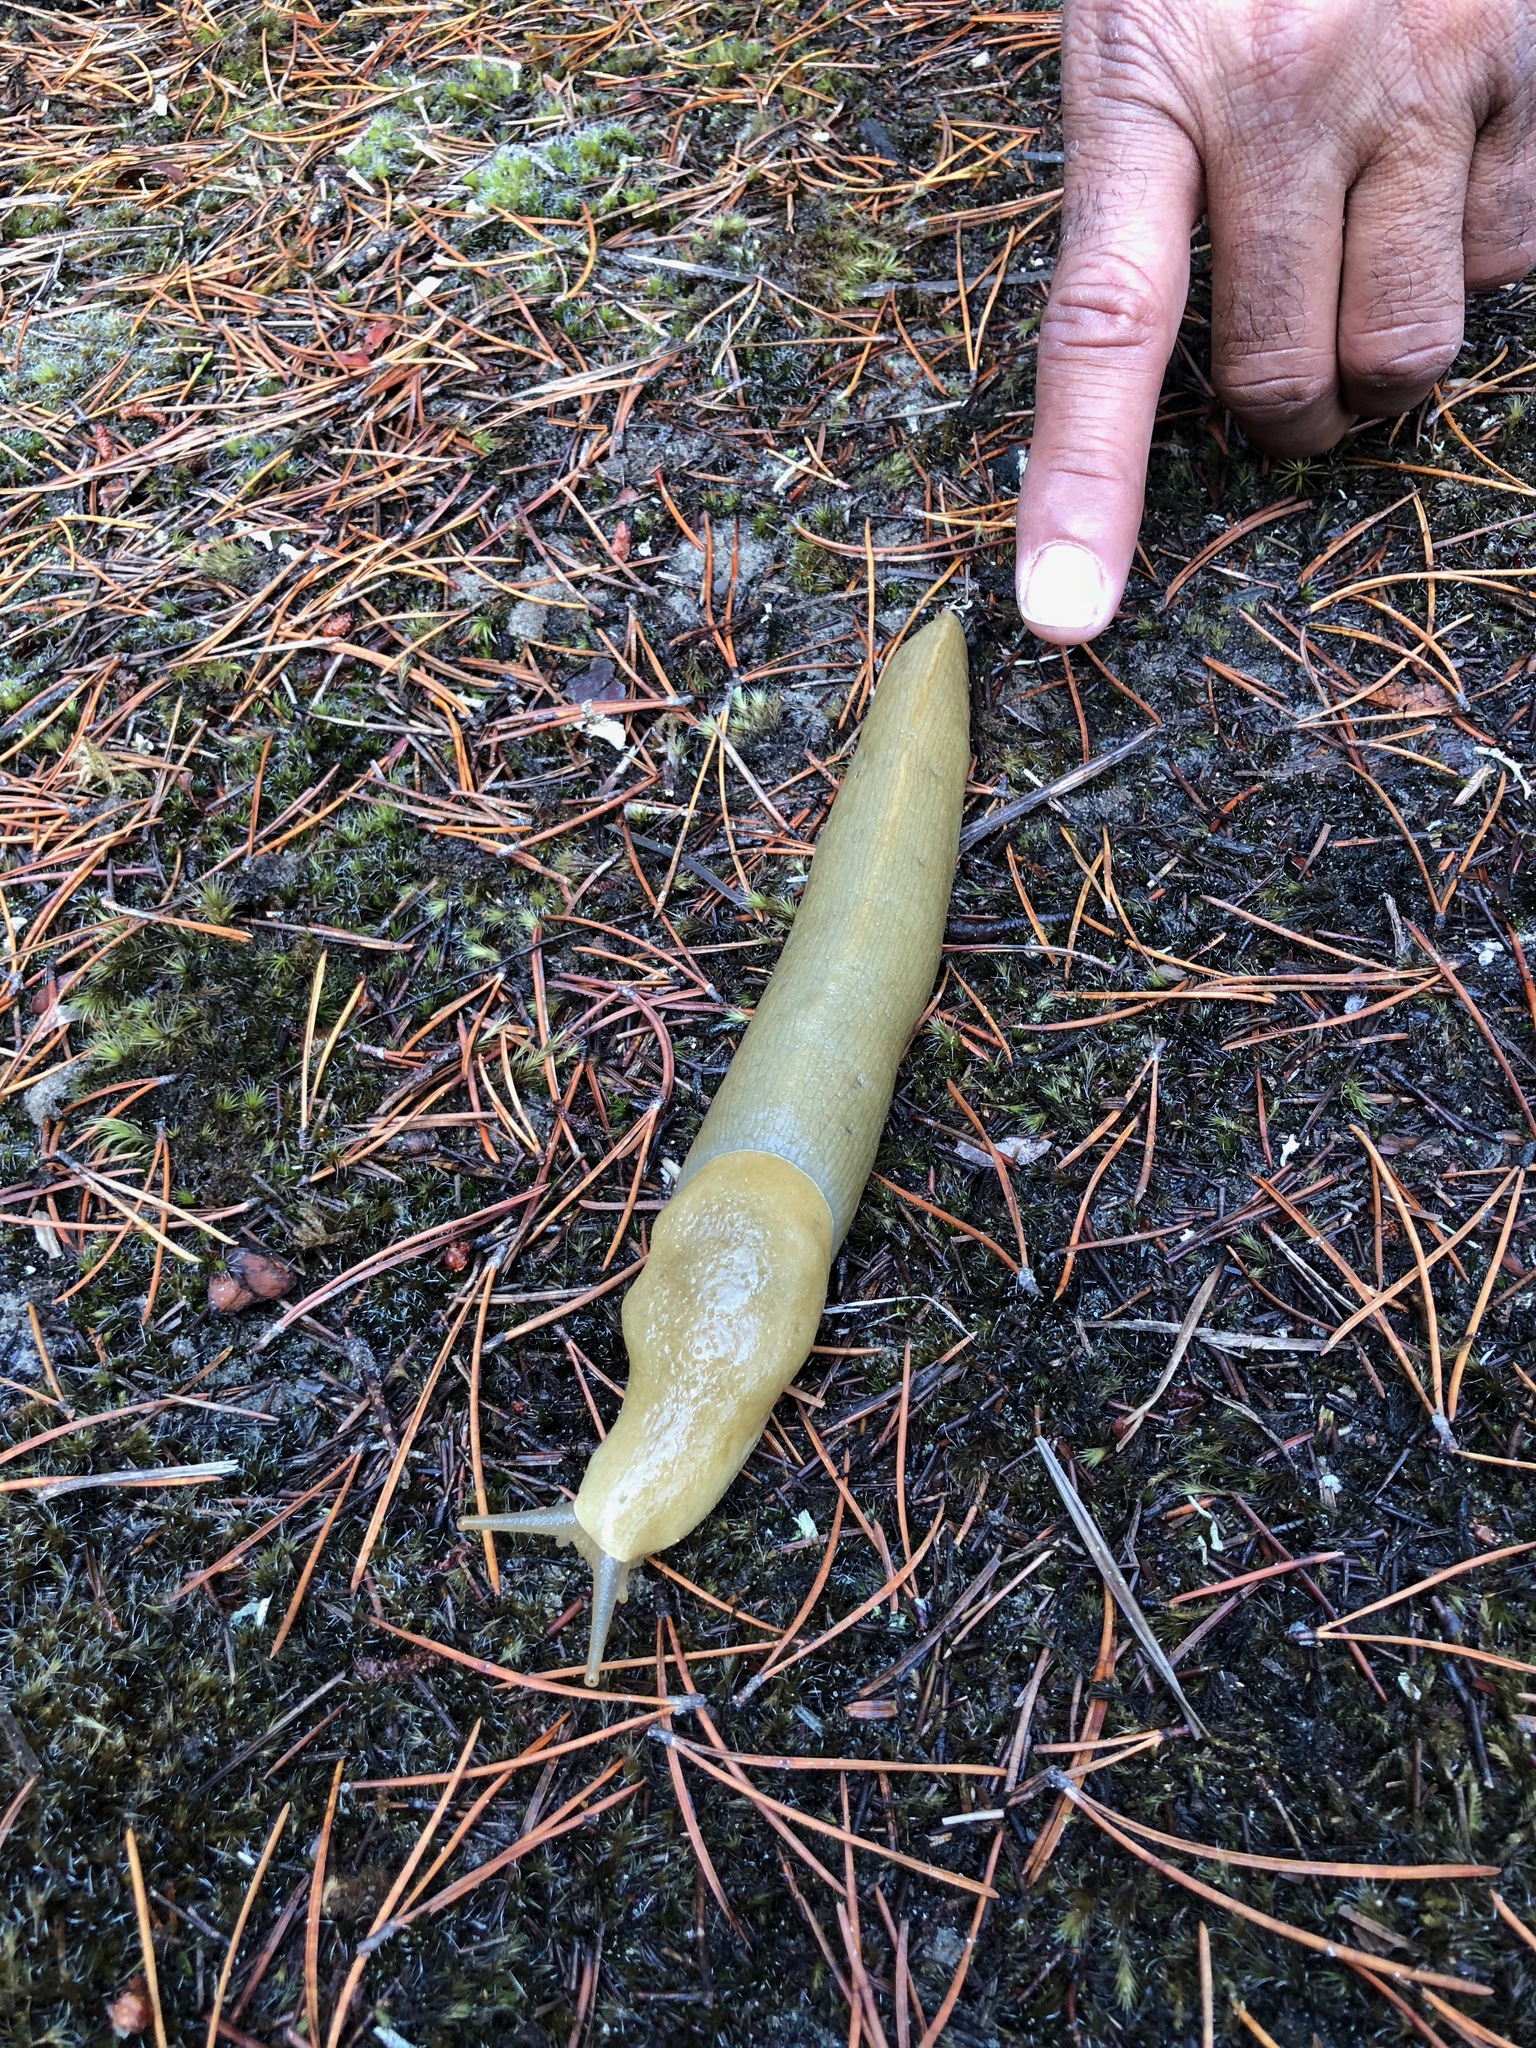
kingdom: Animalia
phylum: Mollusca
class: Gastropoda
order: Stylommatophora
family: Ariolimacidae
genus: Ariolimax
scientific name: Ariolimax columbianus
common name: Pacific banana slug
